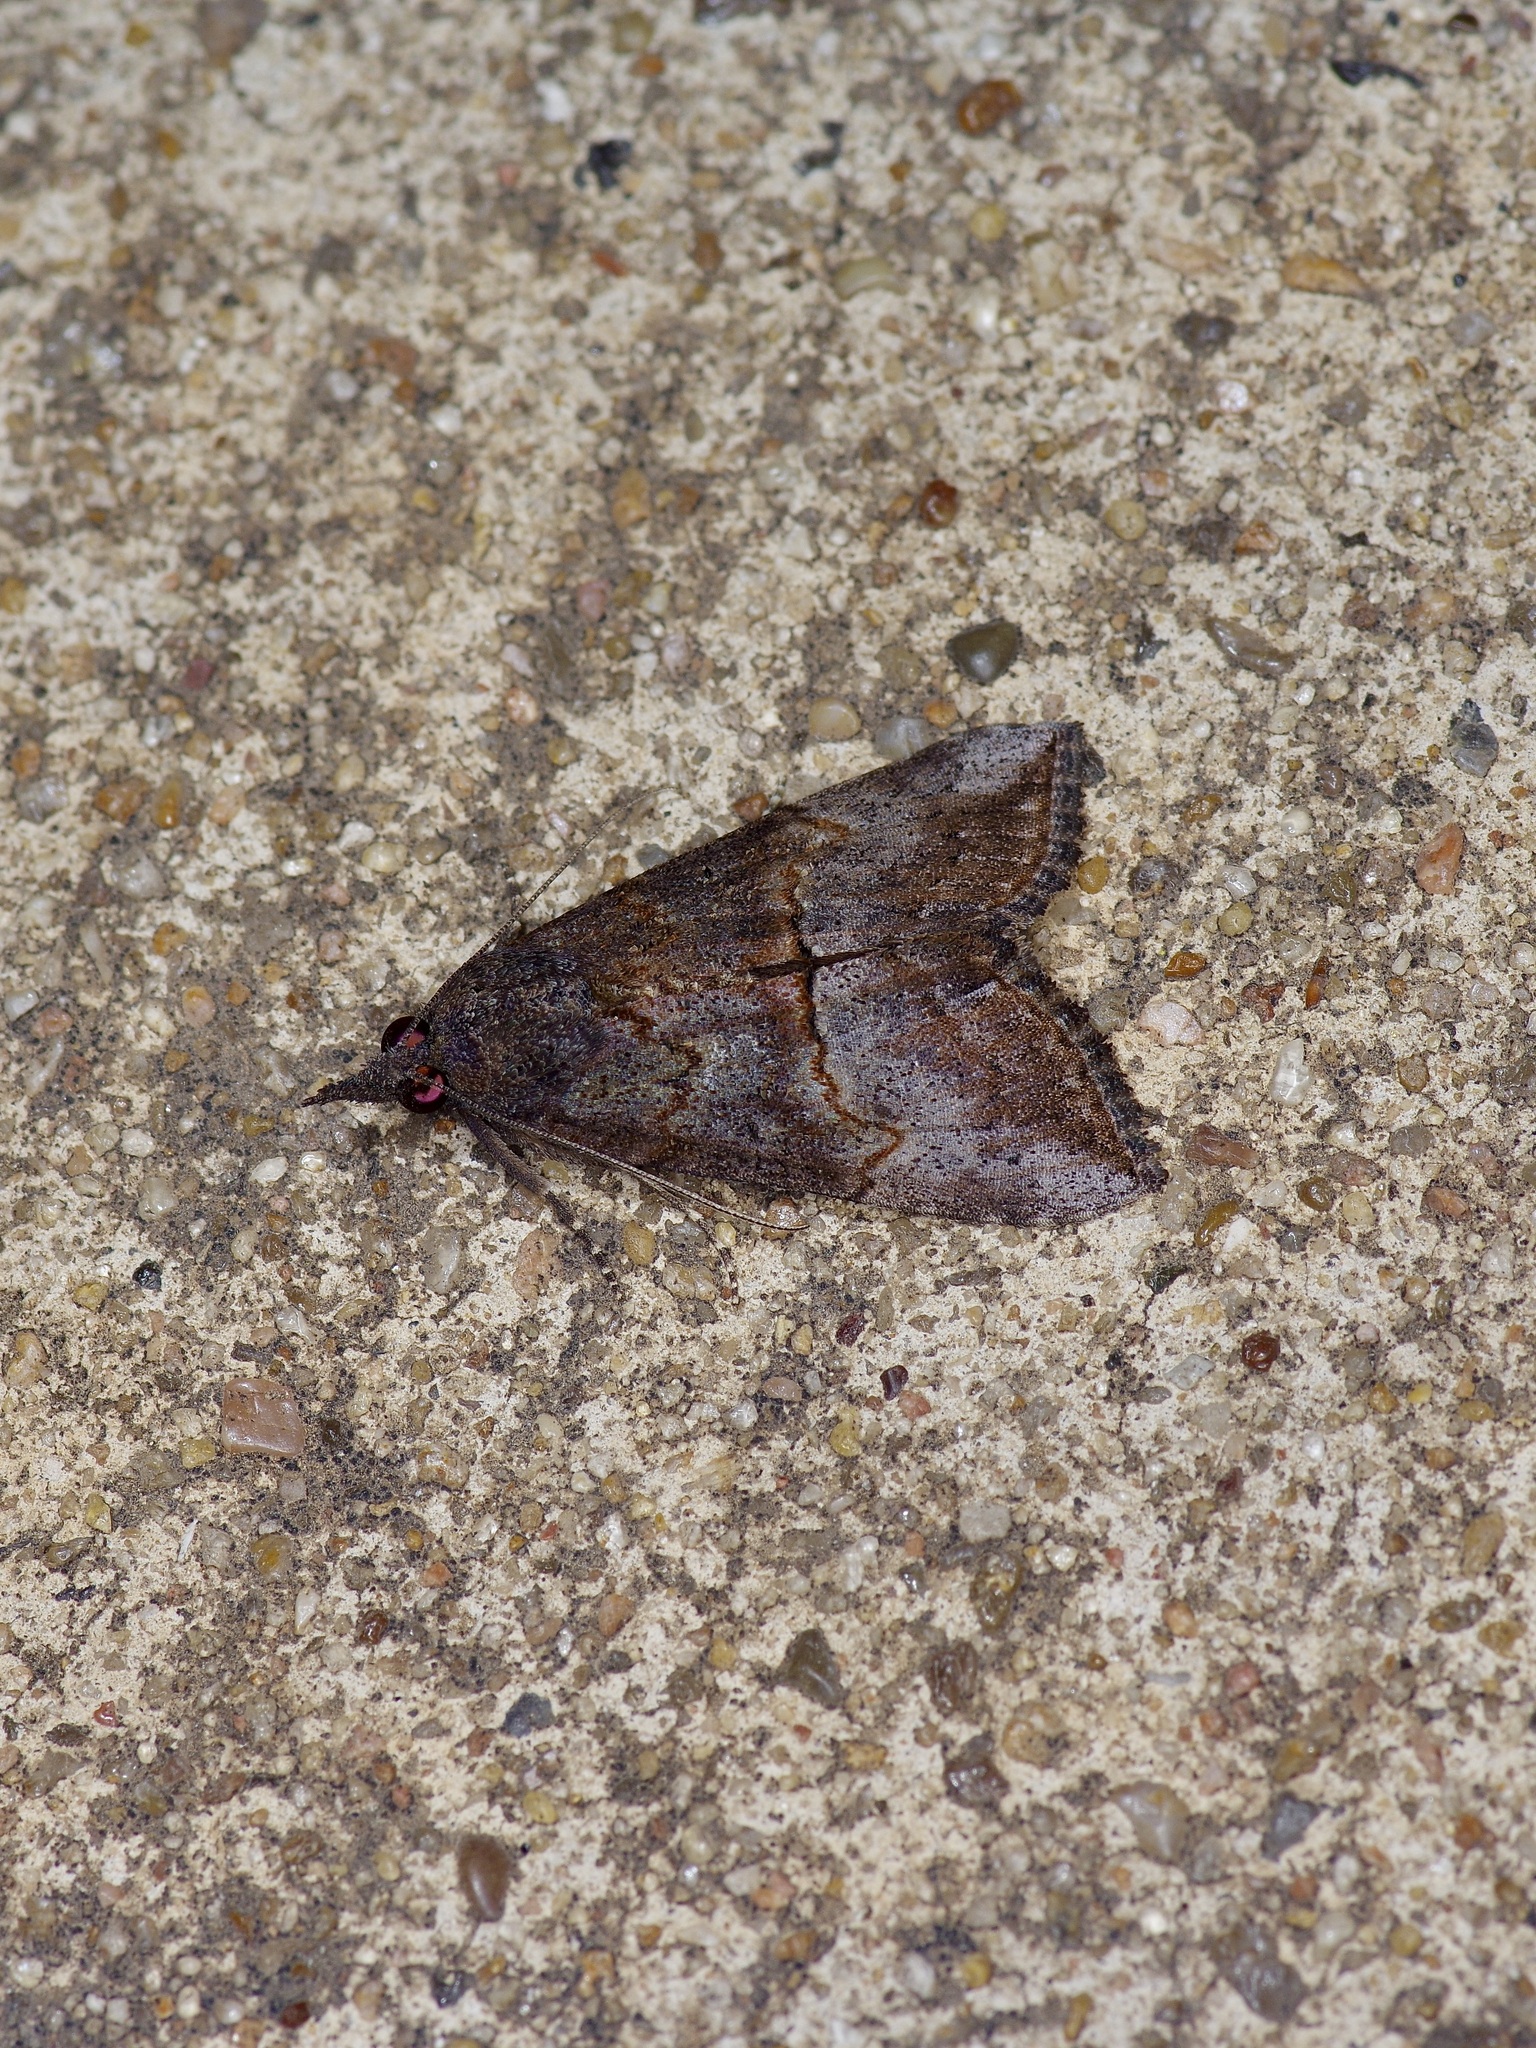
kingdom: Animalia
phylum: Arthropoda
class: Insecta
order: Lepidoptera
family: Erebidae
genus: Hypena
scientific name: Hypena scabra
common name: Green cloverworm
